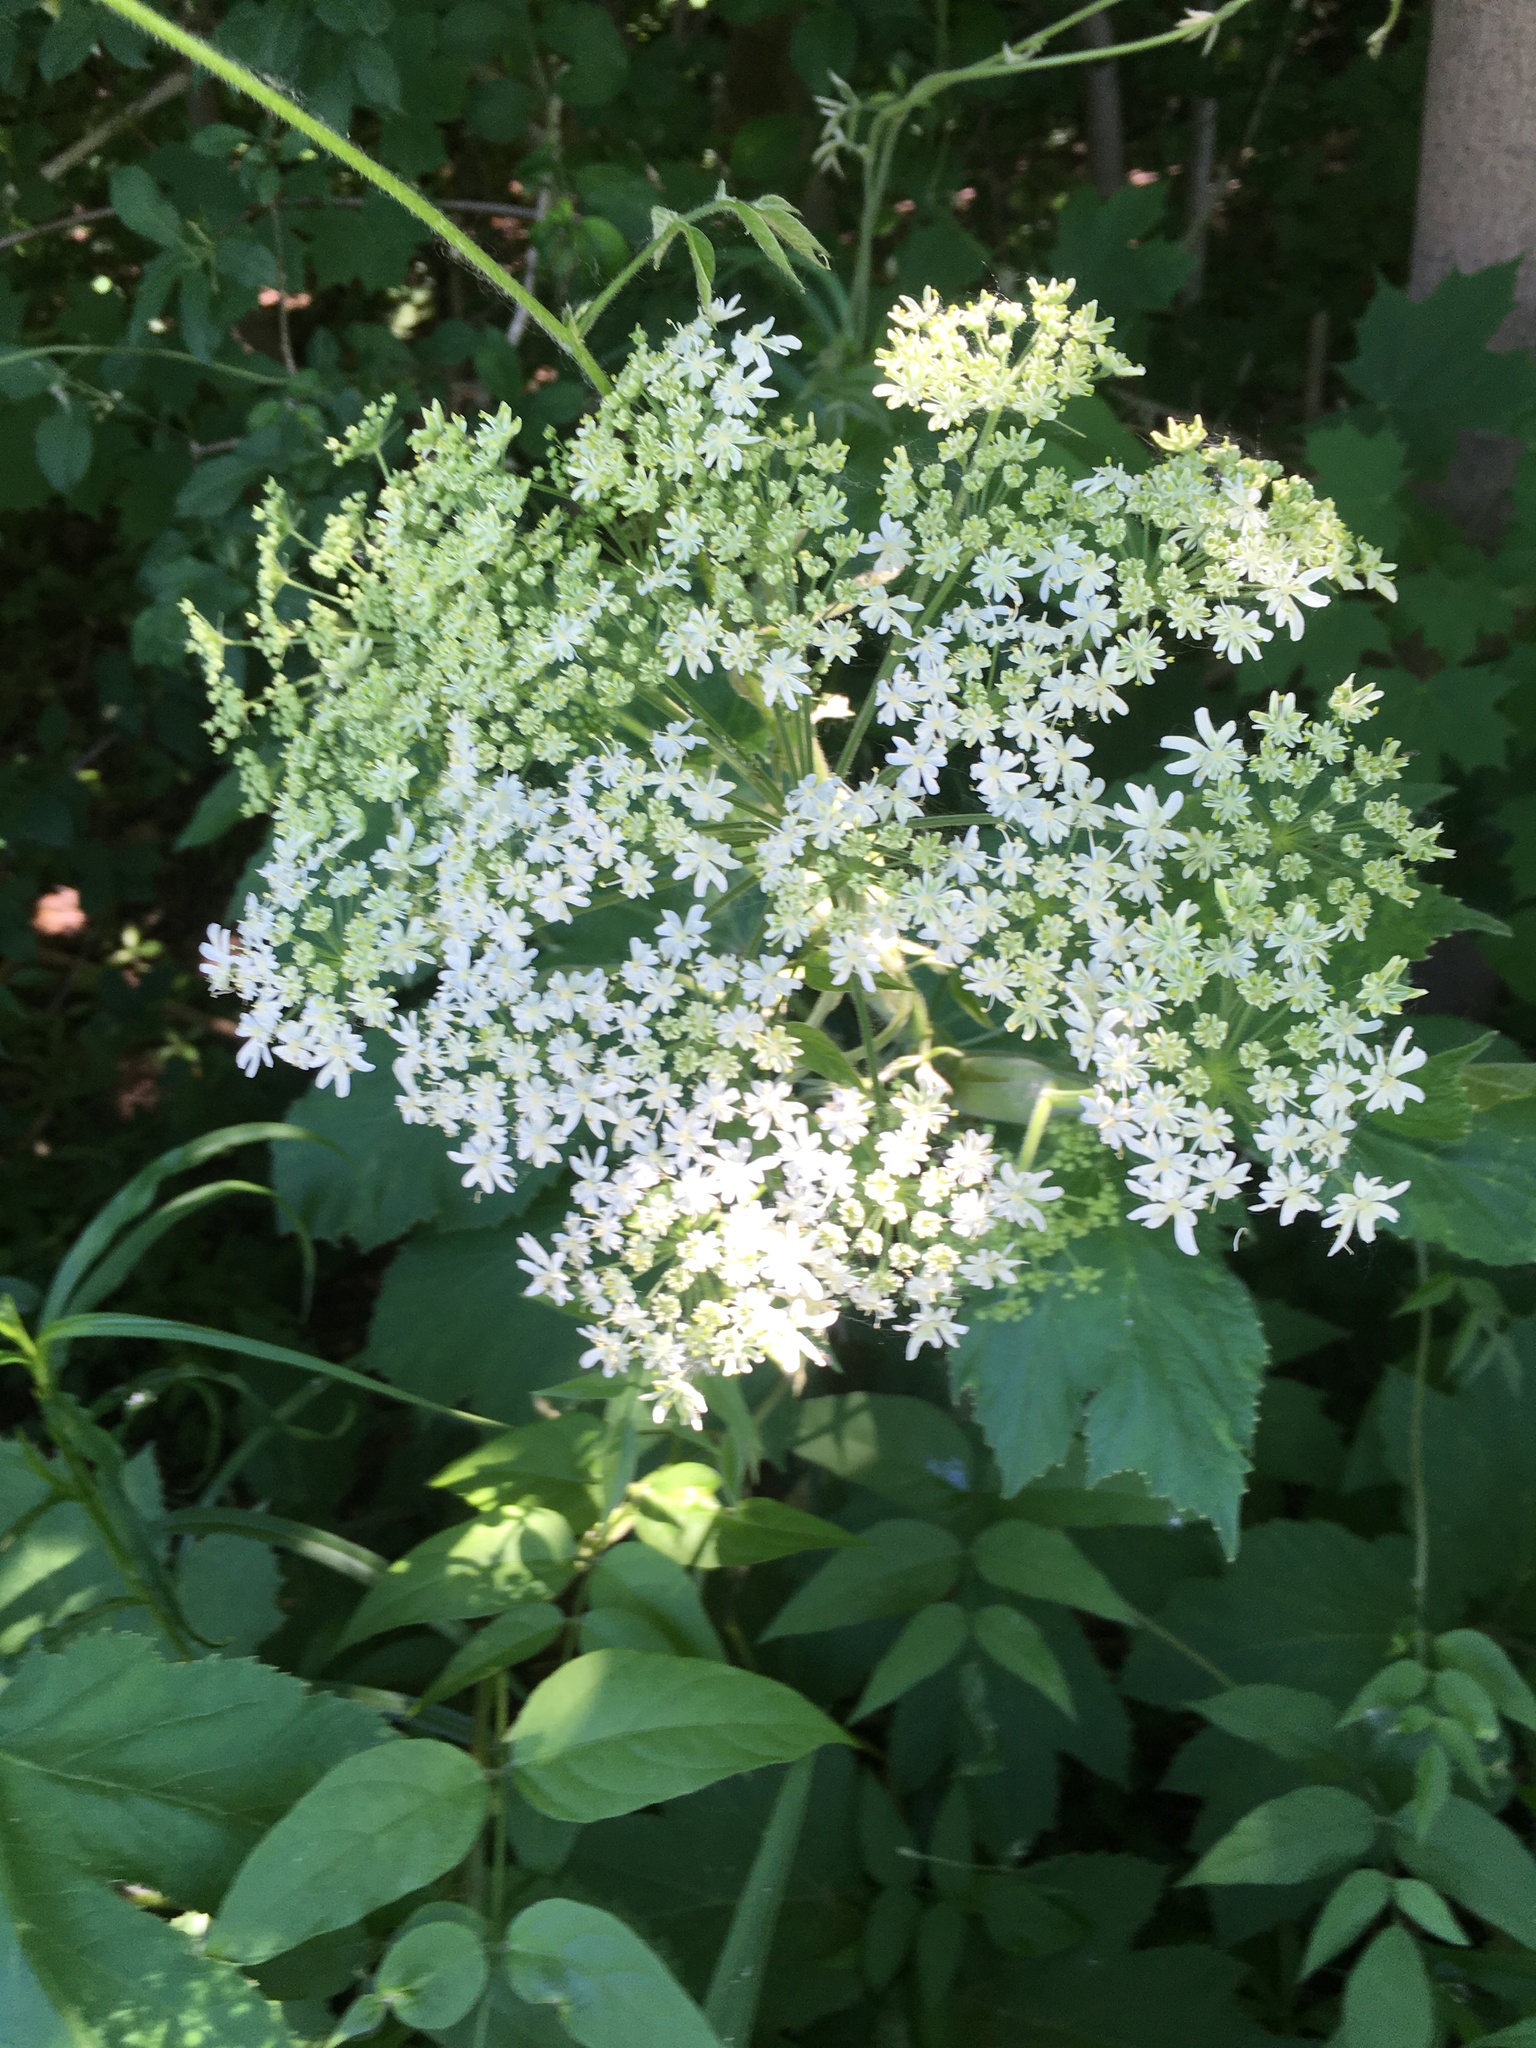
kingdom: Plantae
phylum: Tracheophyta
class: Magnoliopsida
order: Apiales
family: Apiaceae
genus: Heracleum
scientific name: Heracleum maximum
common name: American cow parsnip
